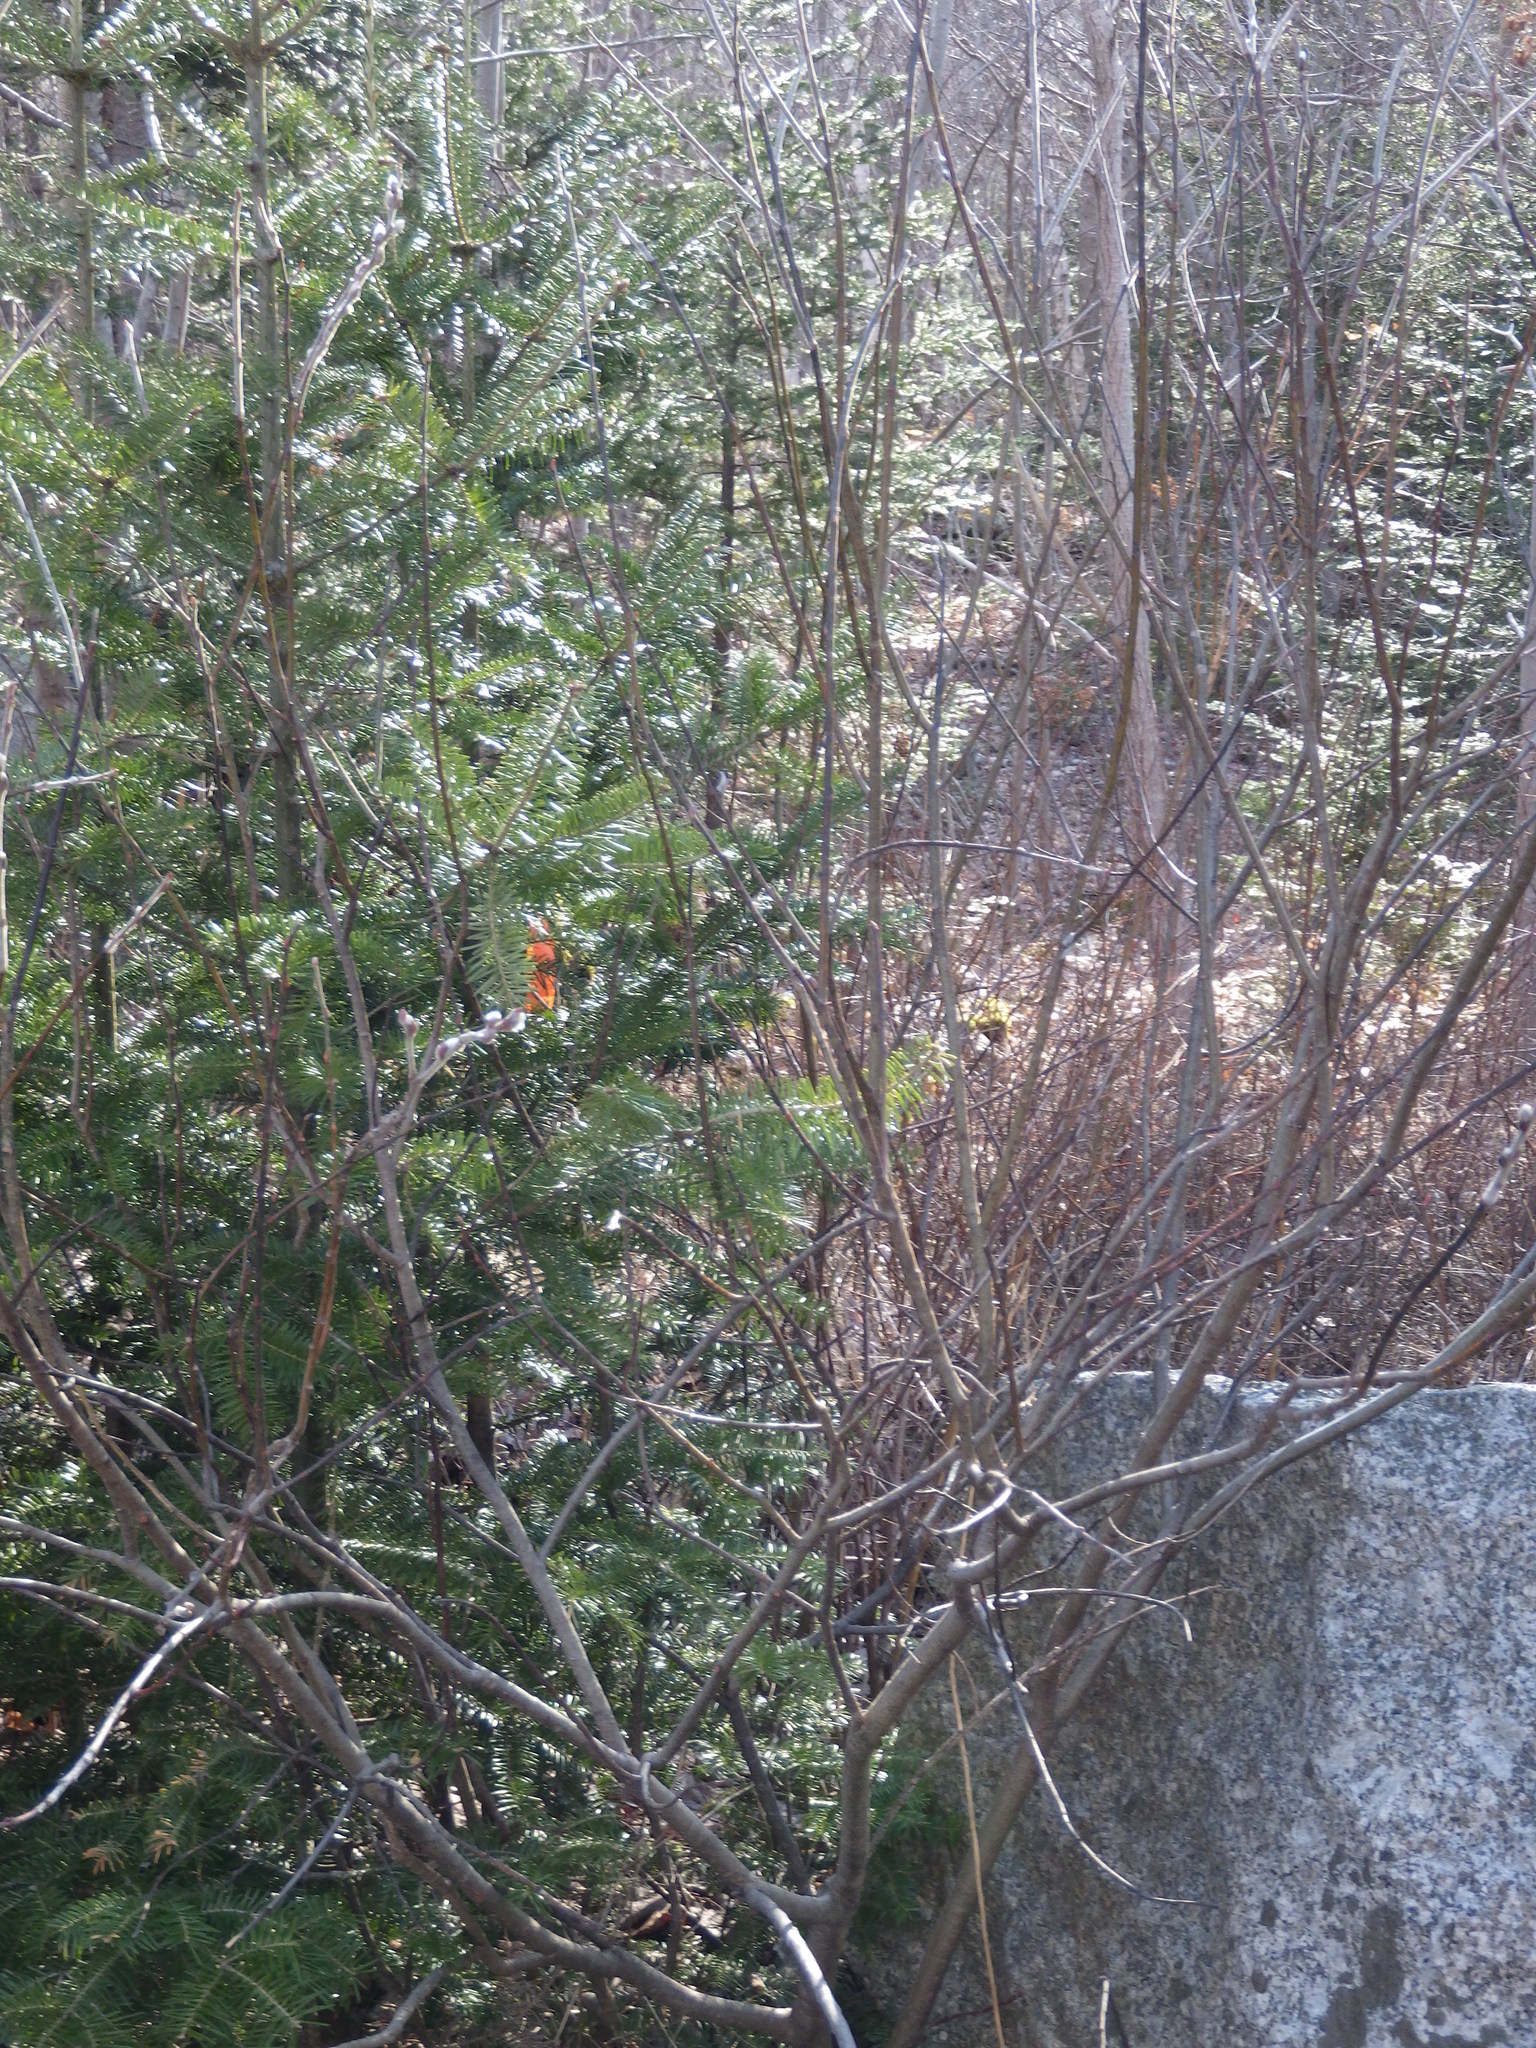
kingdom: Plantae
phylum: Tracheophyta
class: Magnoliopsida
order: Malpighiales
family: Salicaceae
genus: Salix
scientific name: Salix discolor
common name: Glaucous willow
